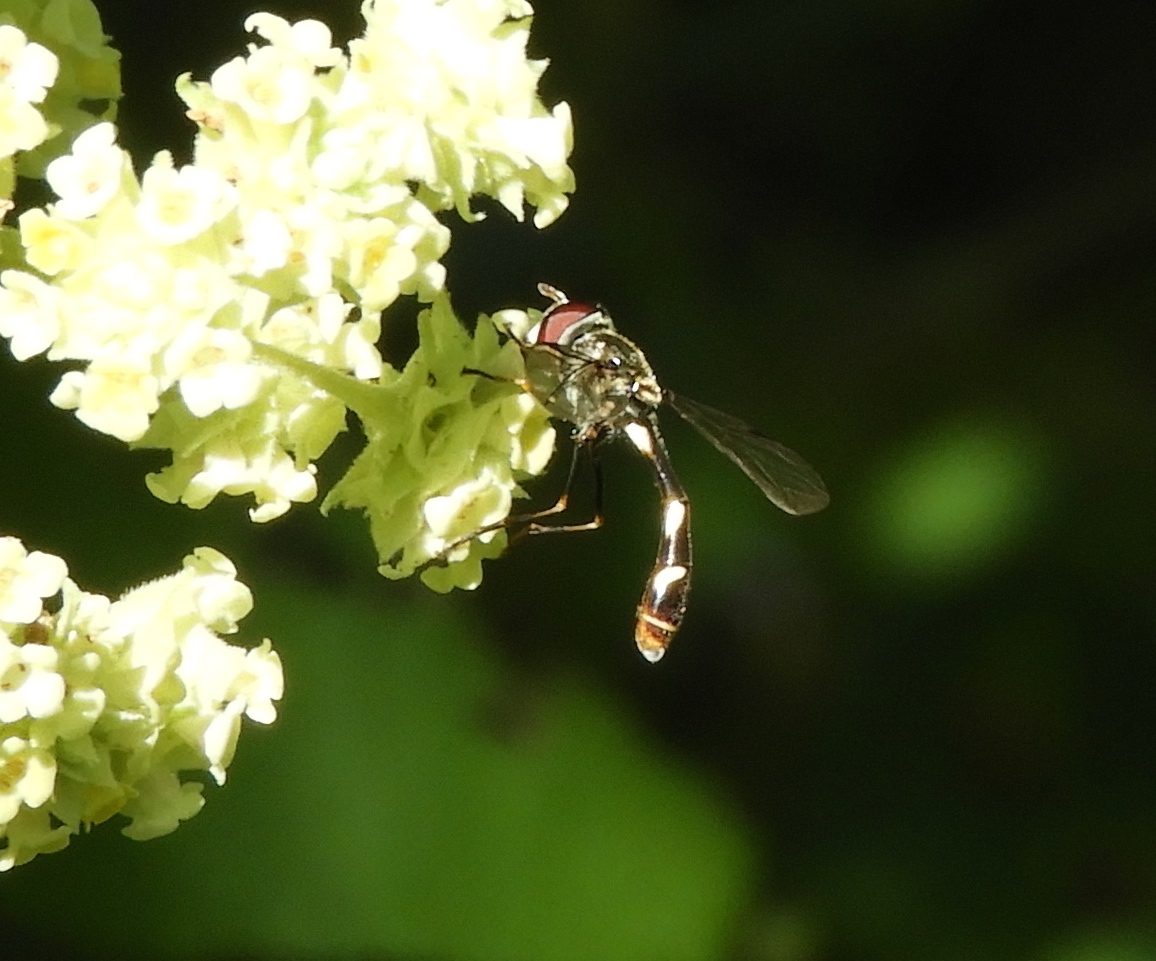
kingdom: Animalia
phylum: Arthropoda
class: Insecta
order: Diptera
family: Syrphidae
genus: Dioprosopa
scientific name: Dioprosopa clavatus
